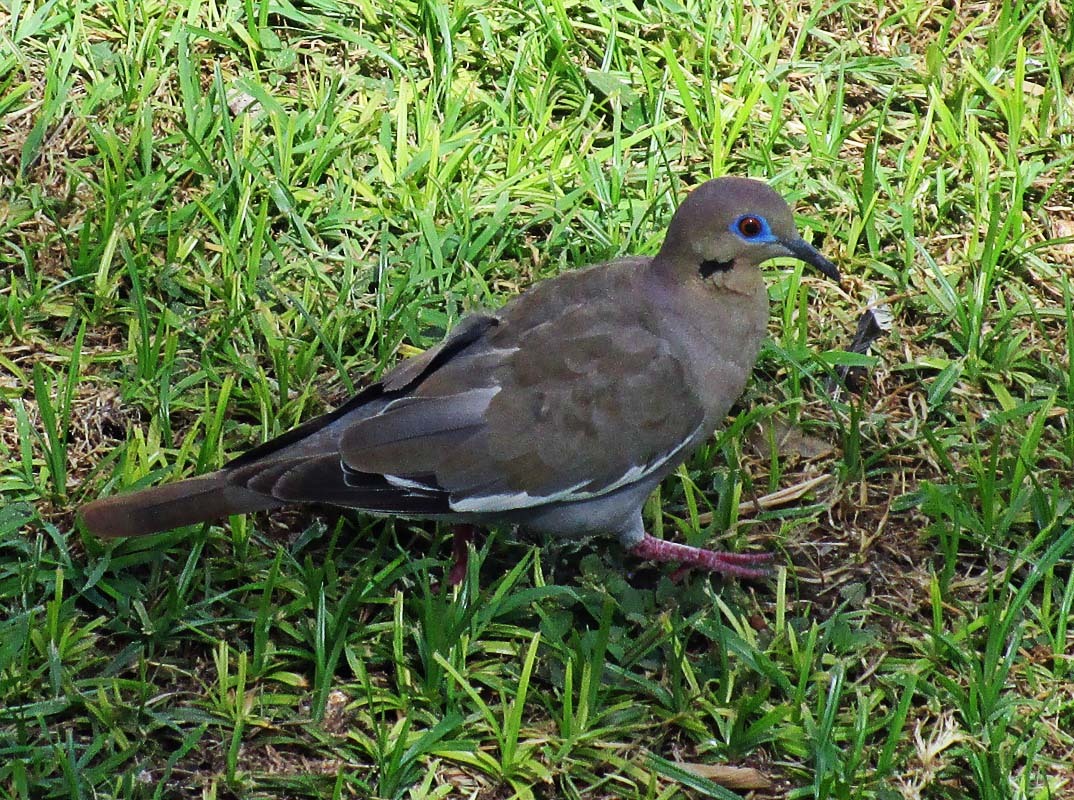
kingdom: Animalia
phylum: Chordata
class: Aves
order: Columbiformes
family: Columbidae
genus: Zenaida
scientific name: Zenaida asiatica
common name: White-winged dove
